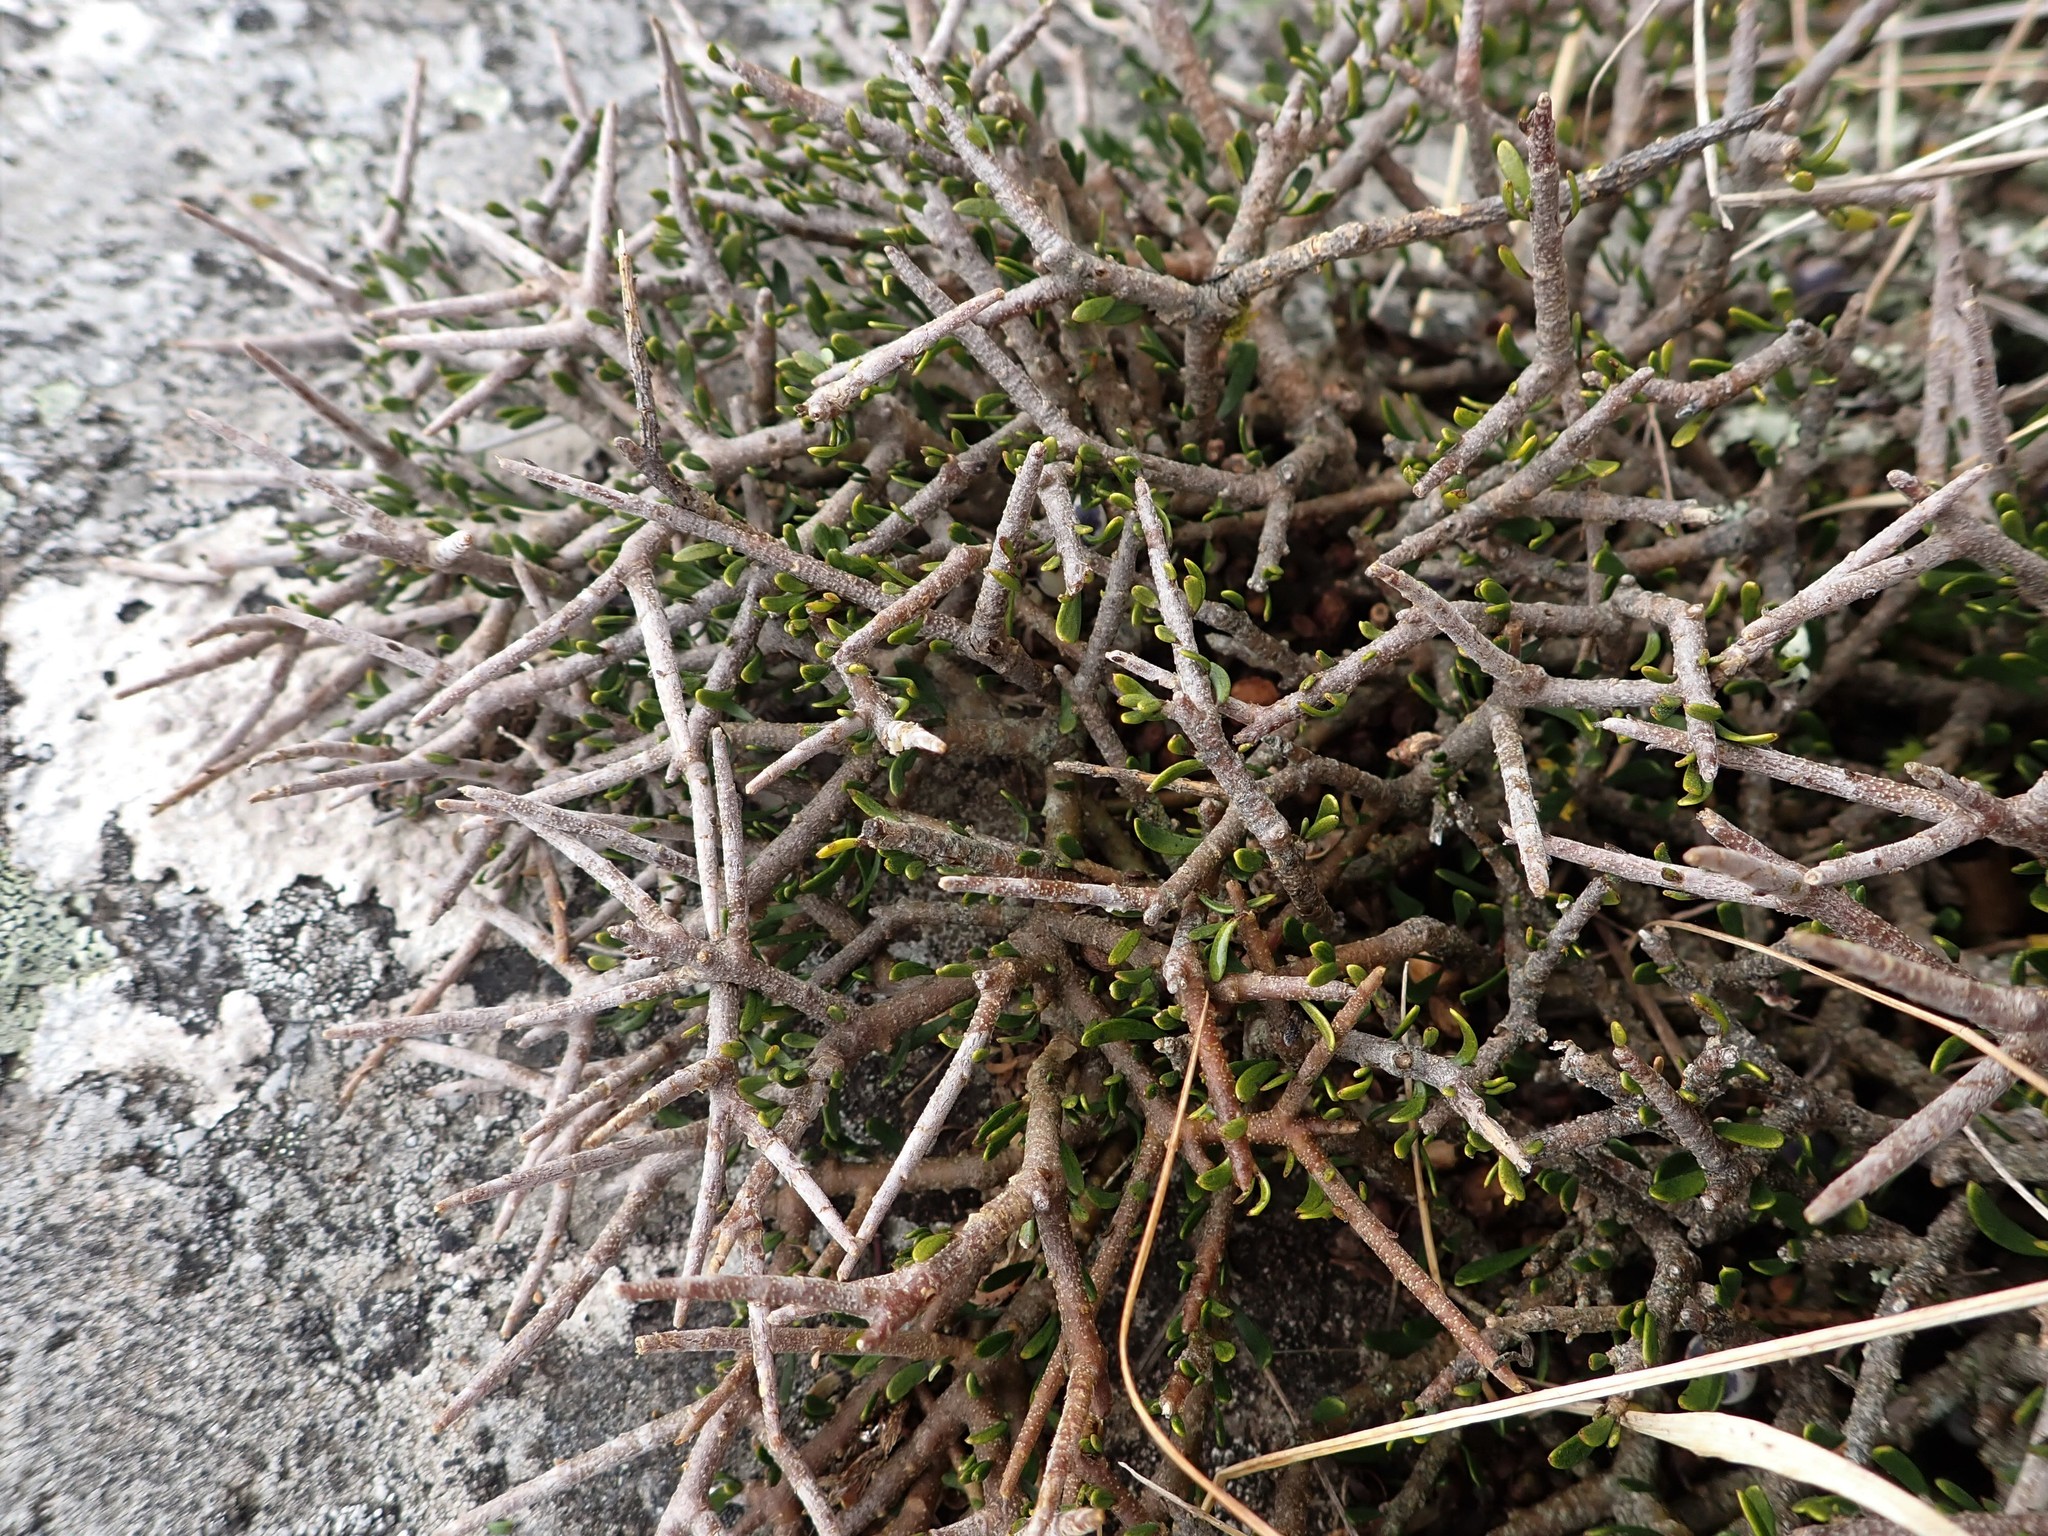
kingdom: Plantae
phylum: Tracheophyta
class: Magnoliopsida
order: Malpighiales
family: Violaceae
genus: Melicytus
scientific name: Melicytus alpinus
